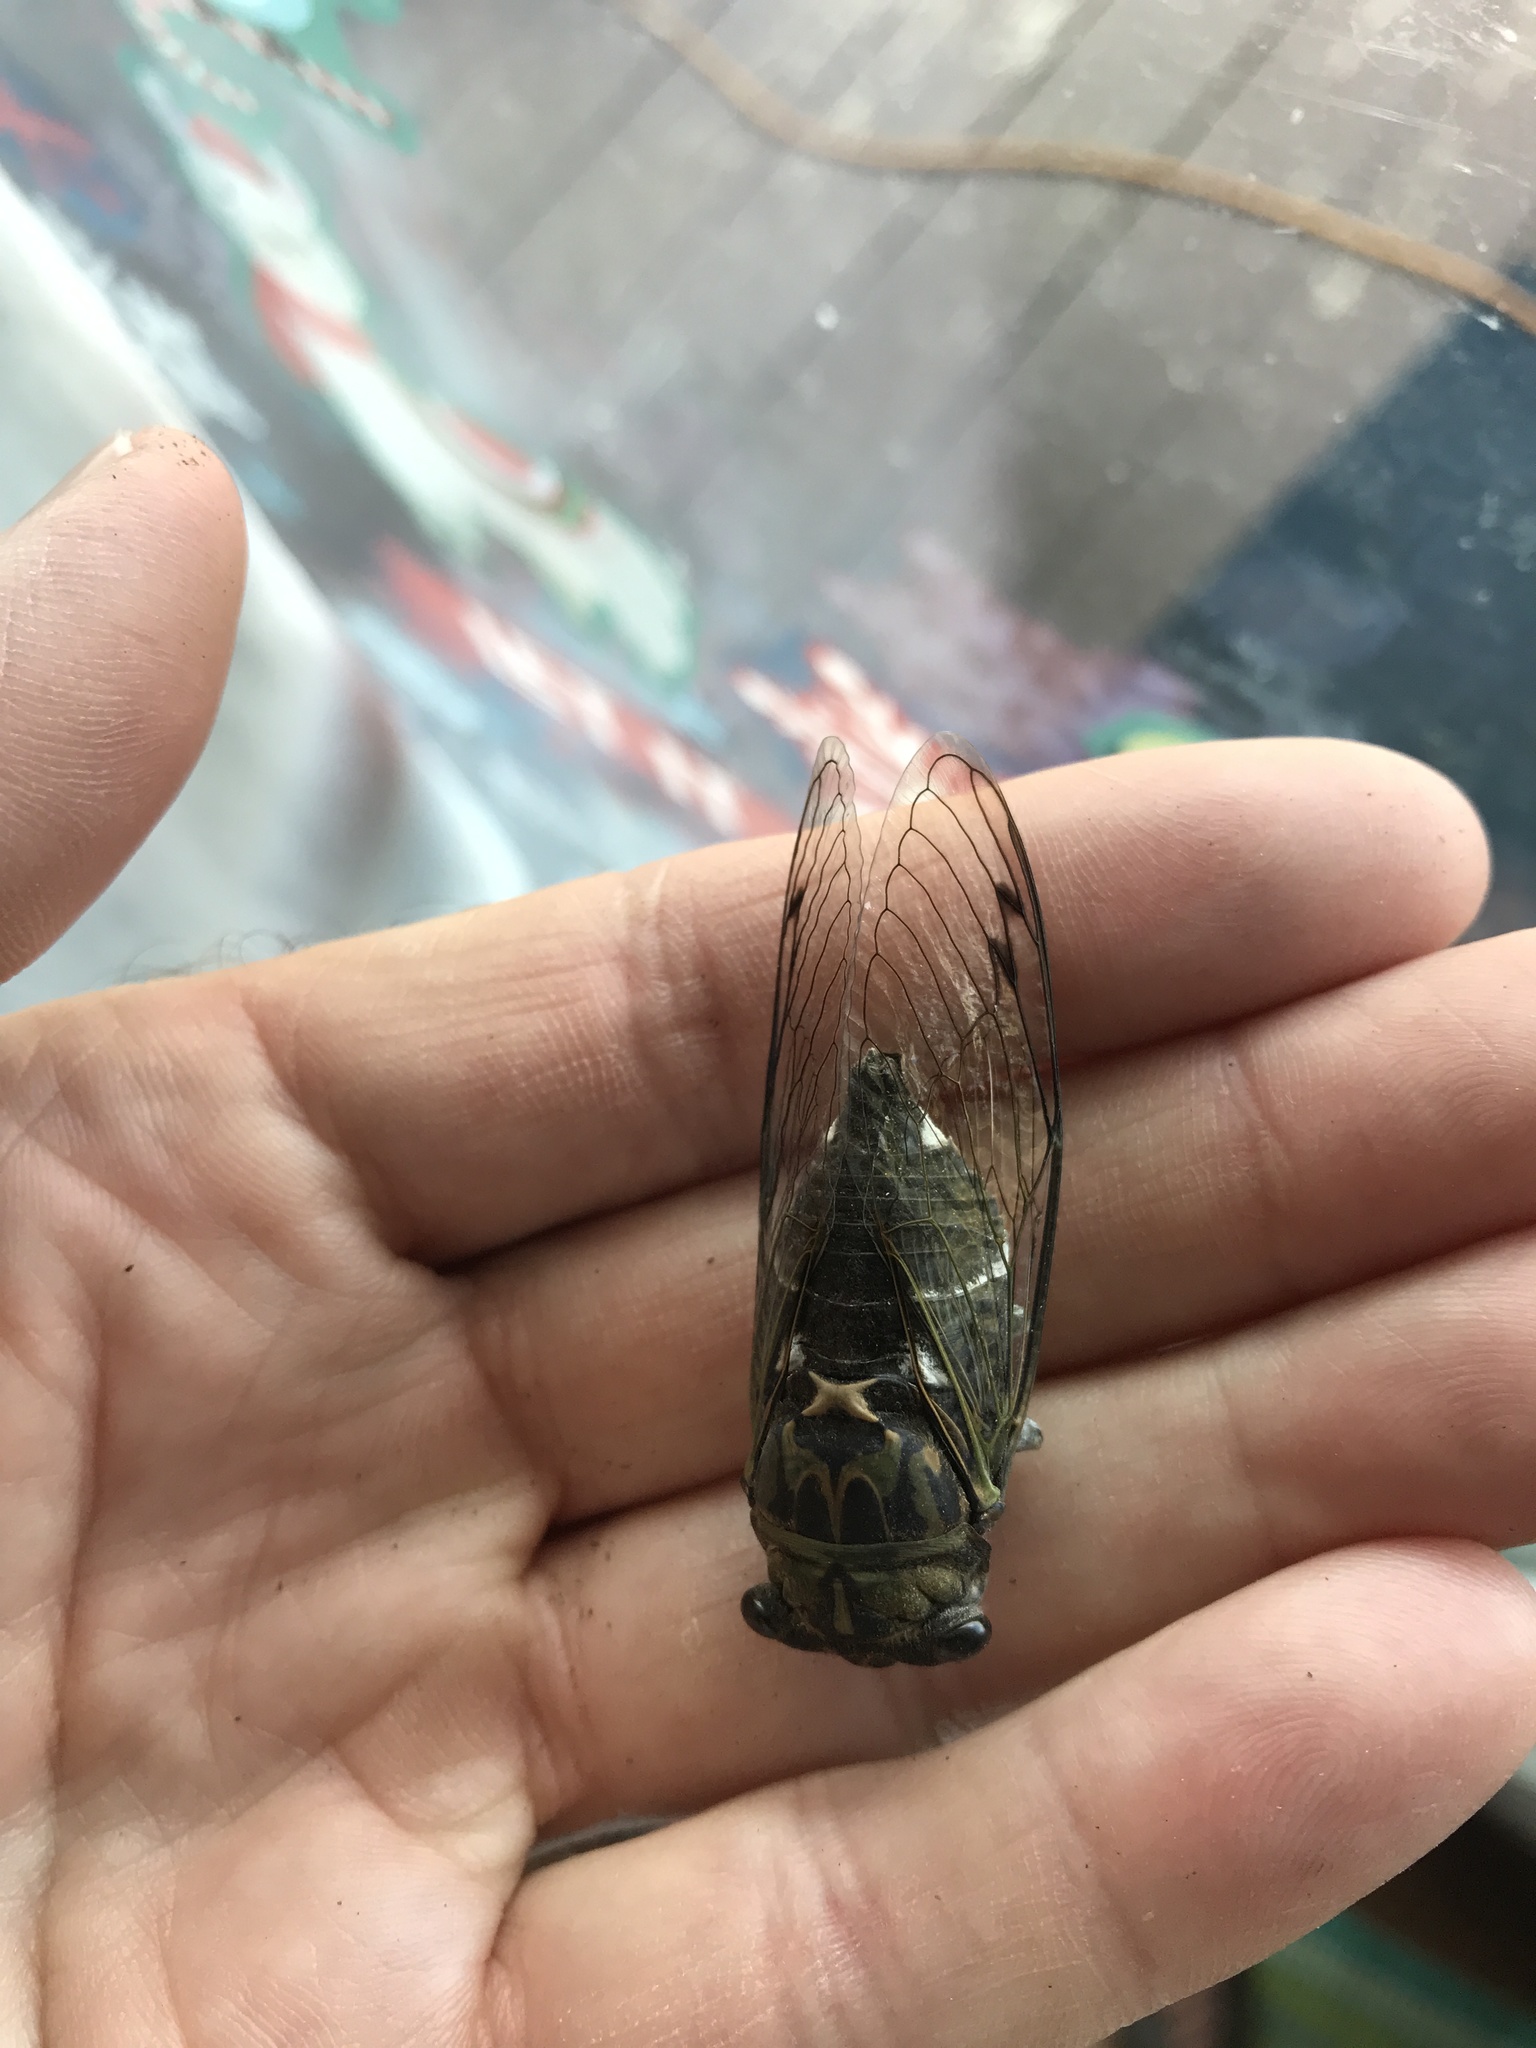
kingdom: Animalia
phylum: Arthropoda
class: Insecta
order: Hemiptera
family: Cicadidae
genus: Neotibicen
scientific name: Neotibicen pruinosus
